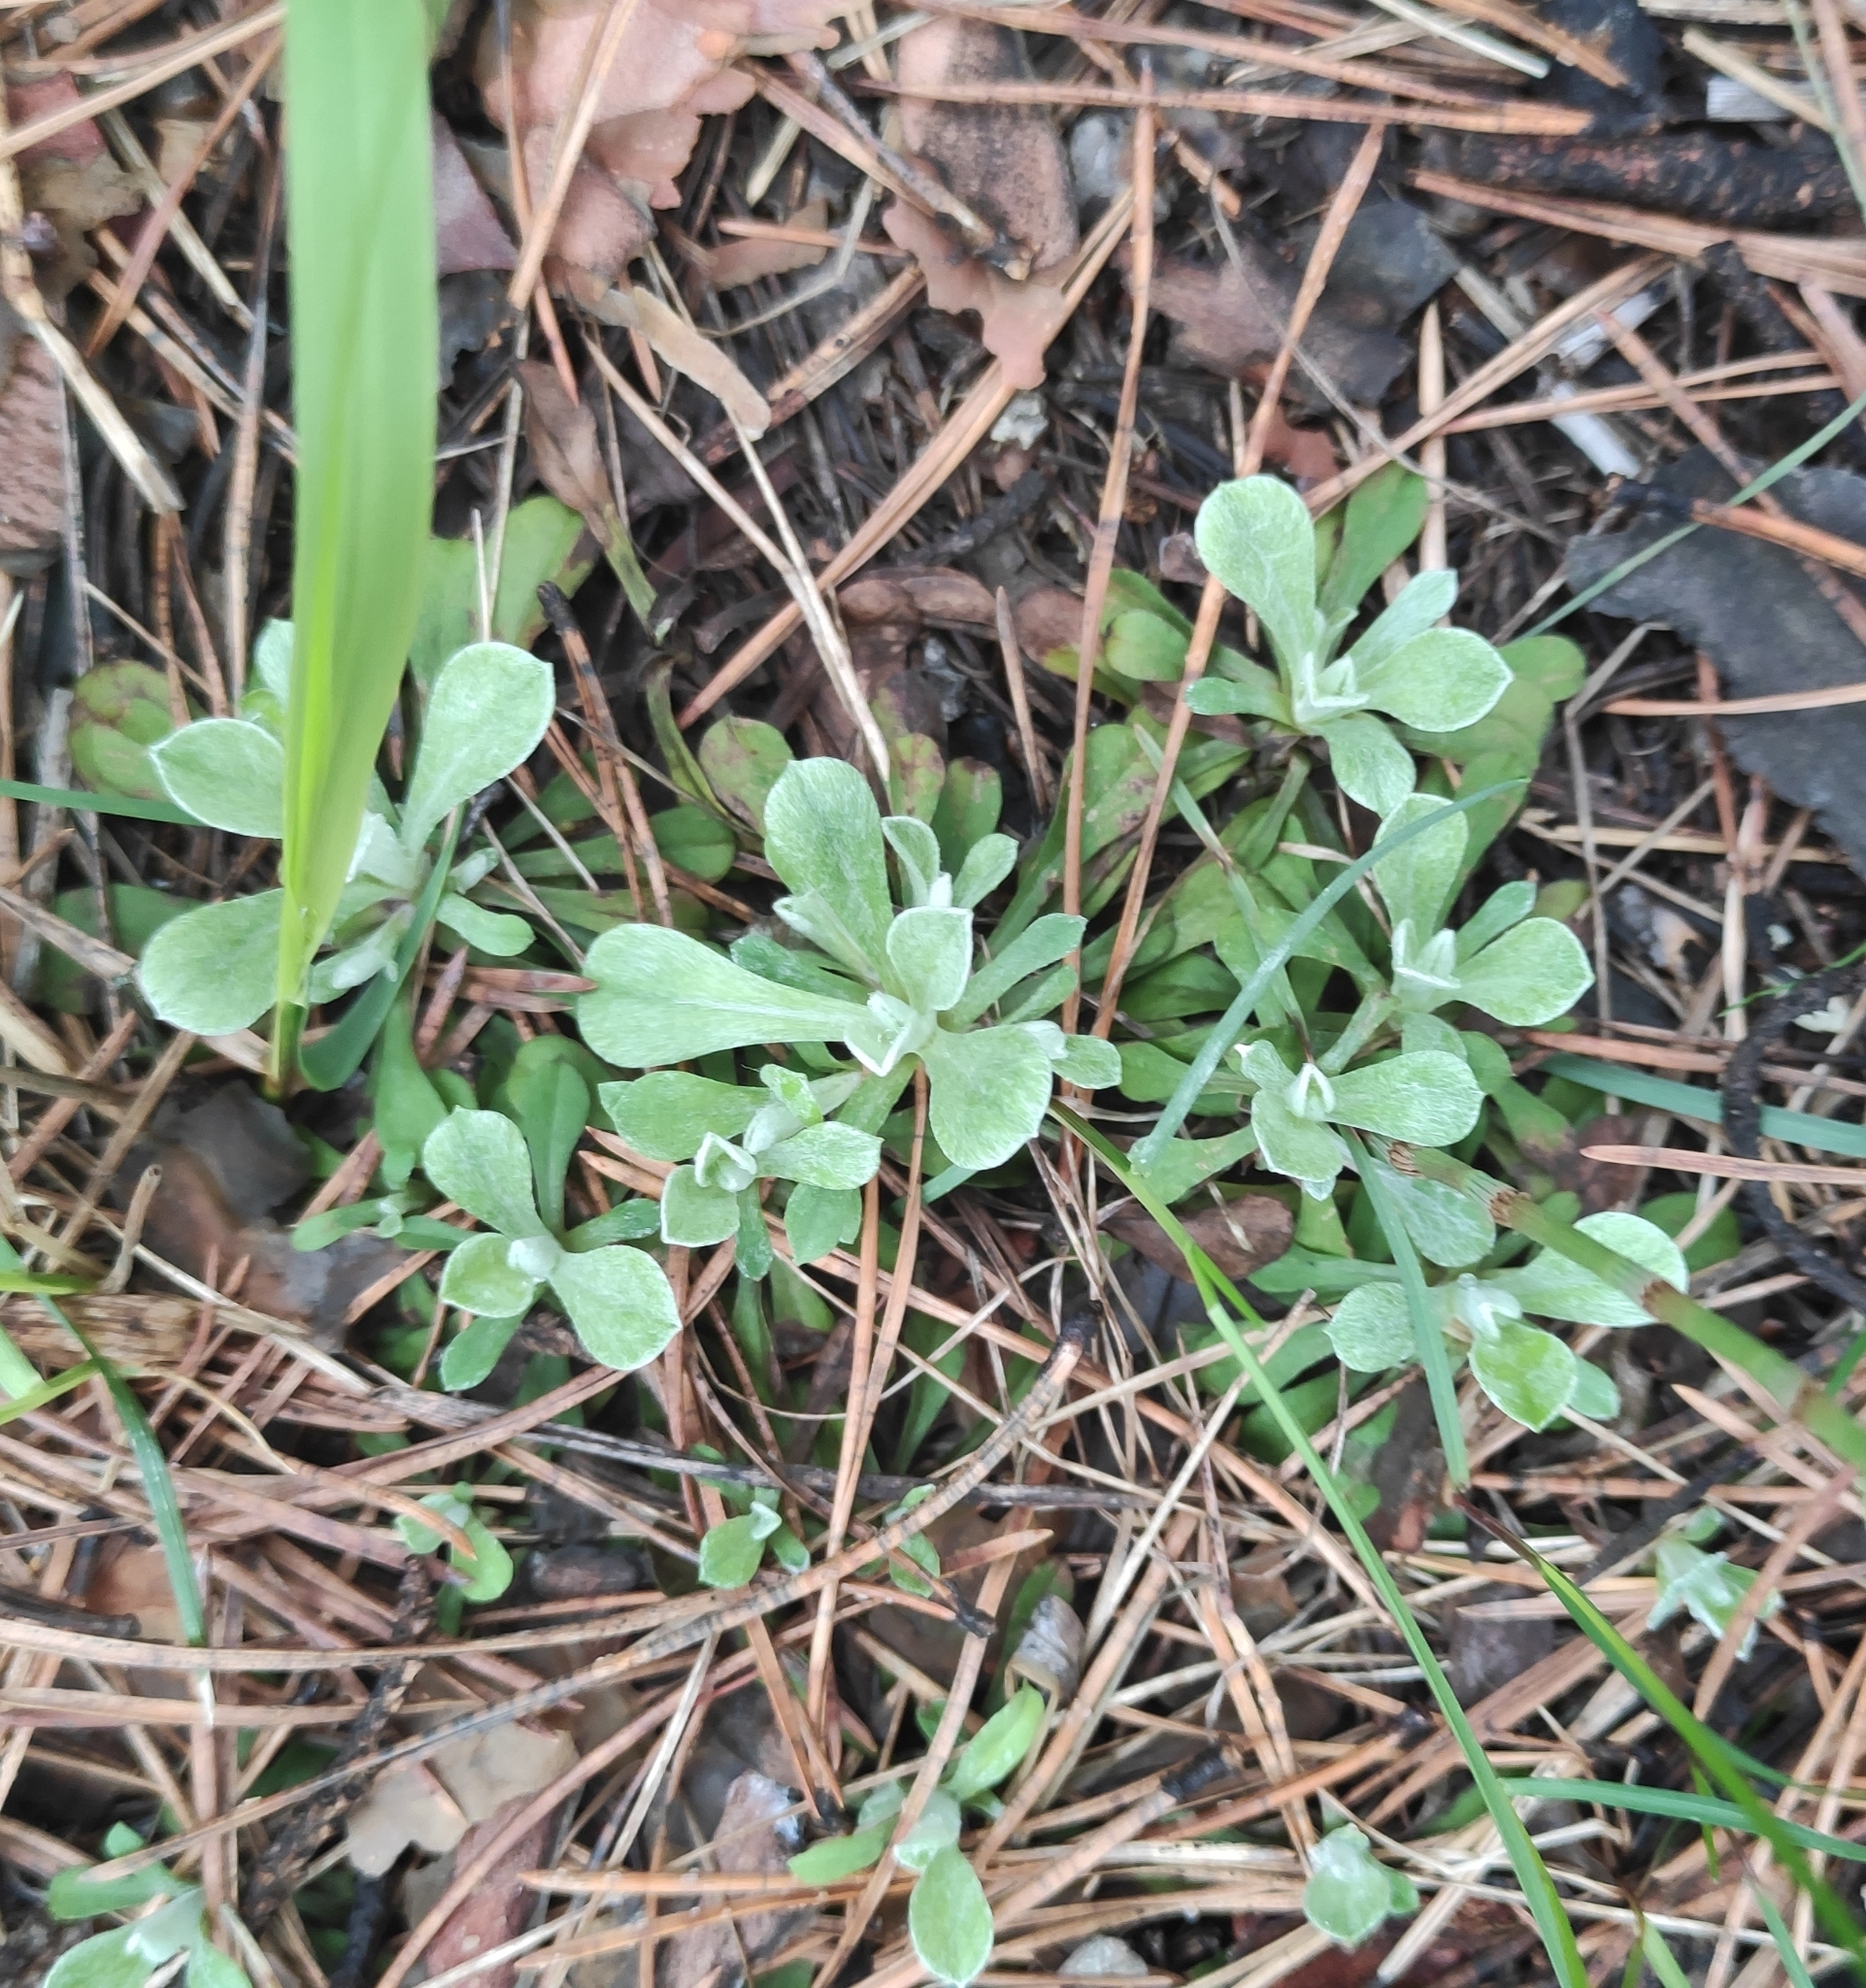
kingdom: Plantae
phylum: Tracheophyta
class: Magnoliopsida
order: Asterales
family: Asteraceae
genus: Antennaria
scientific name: Antennaria dioica
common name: Mountain everlasting
